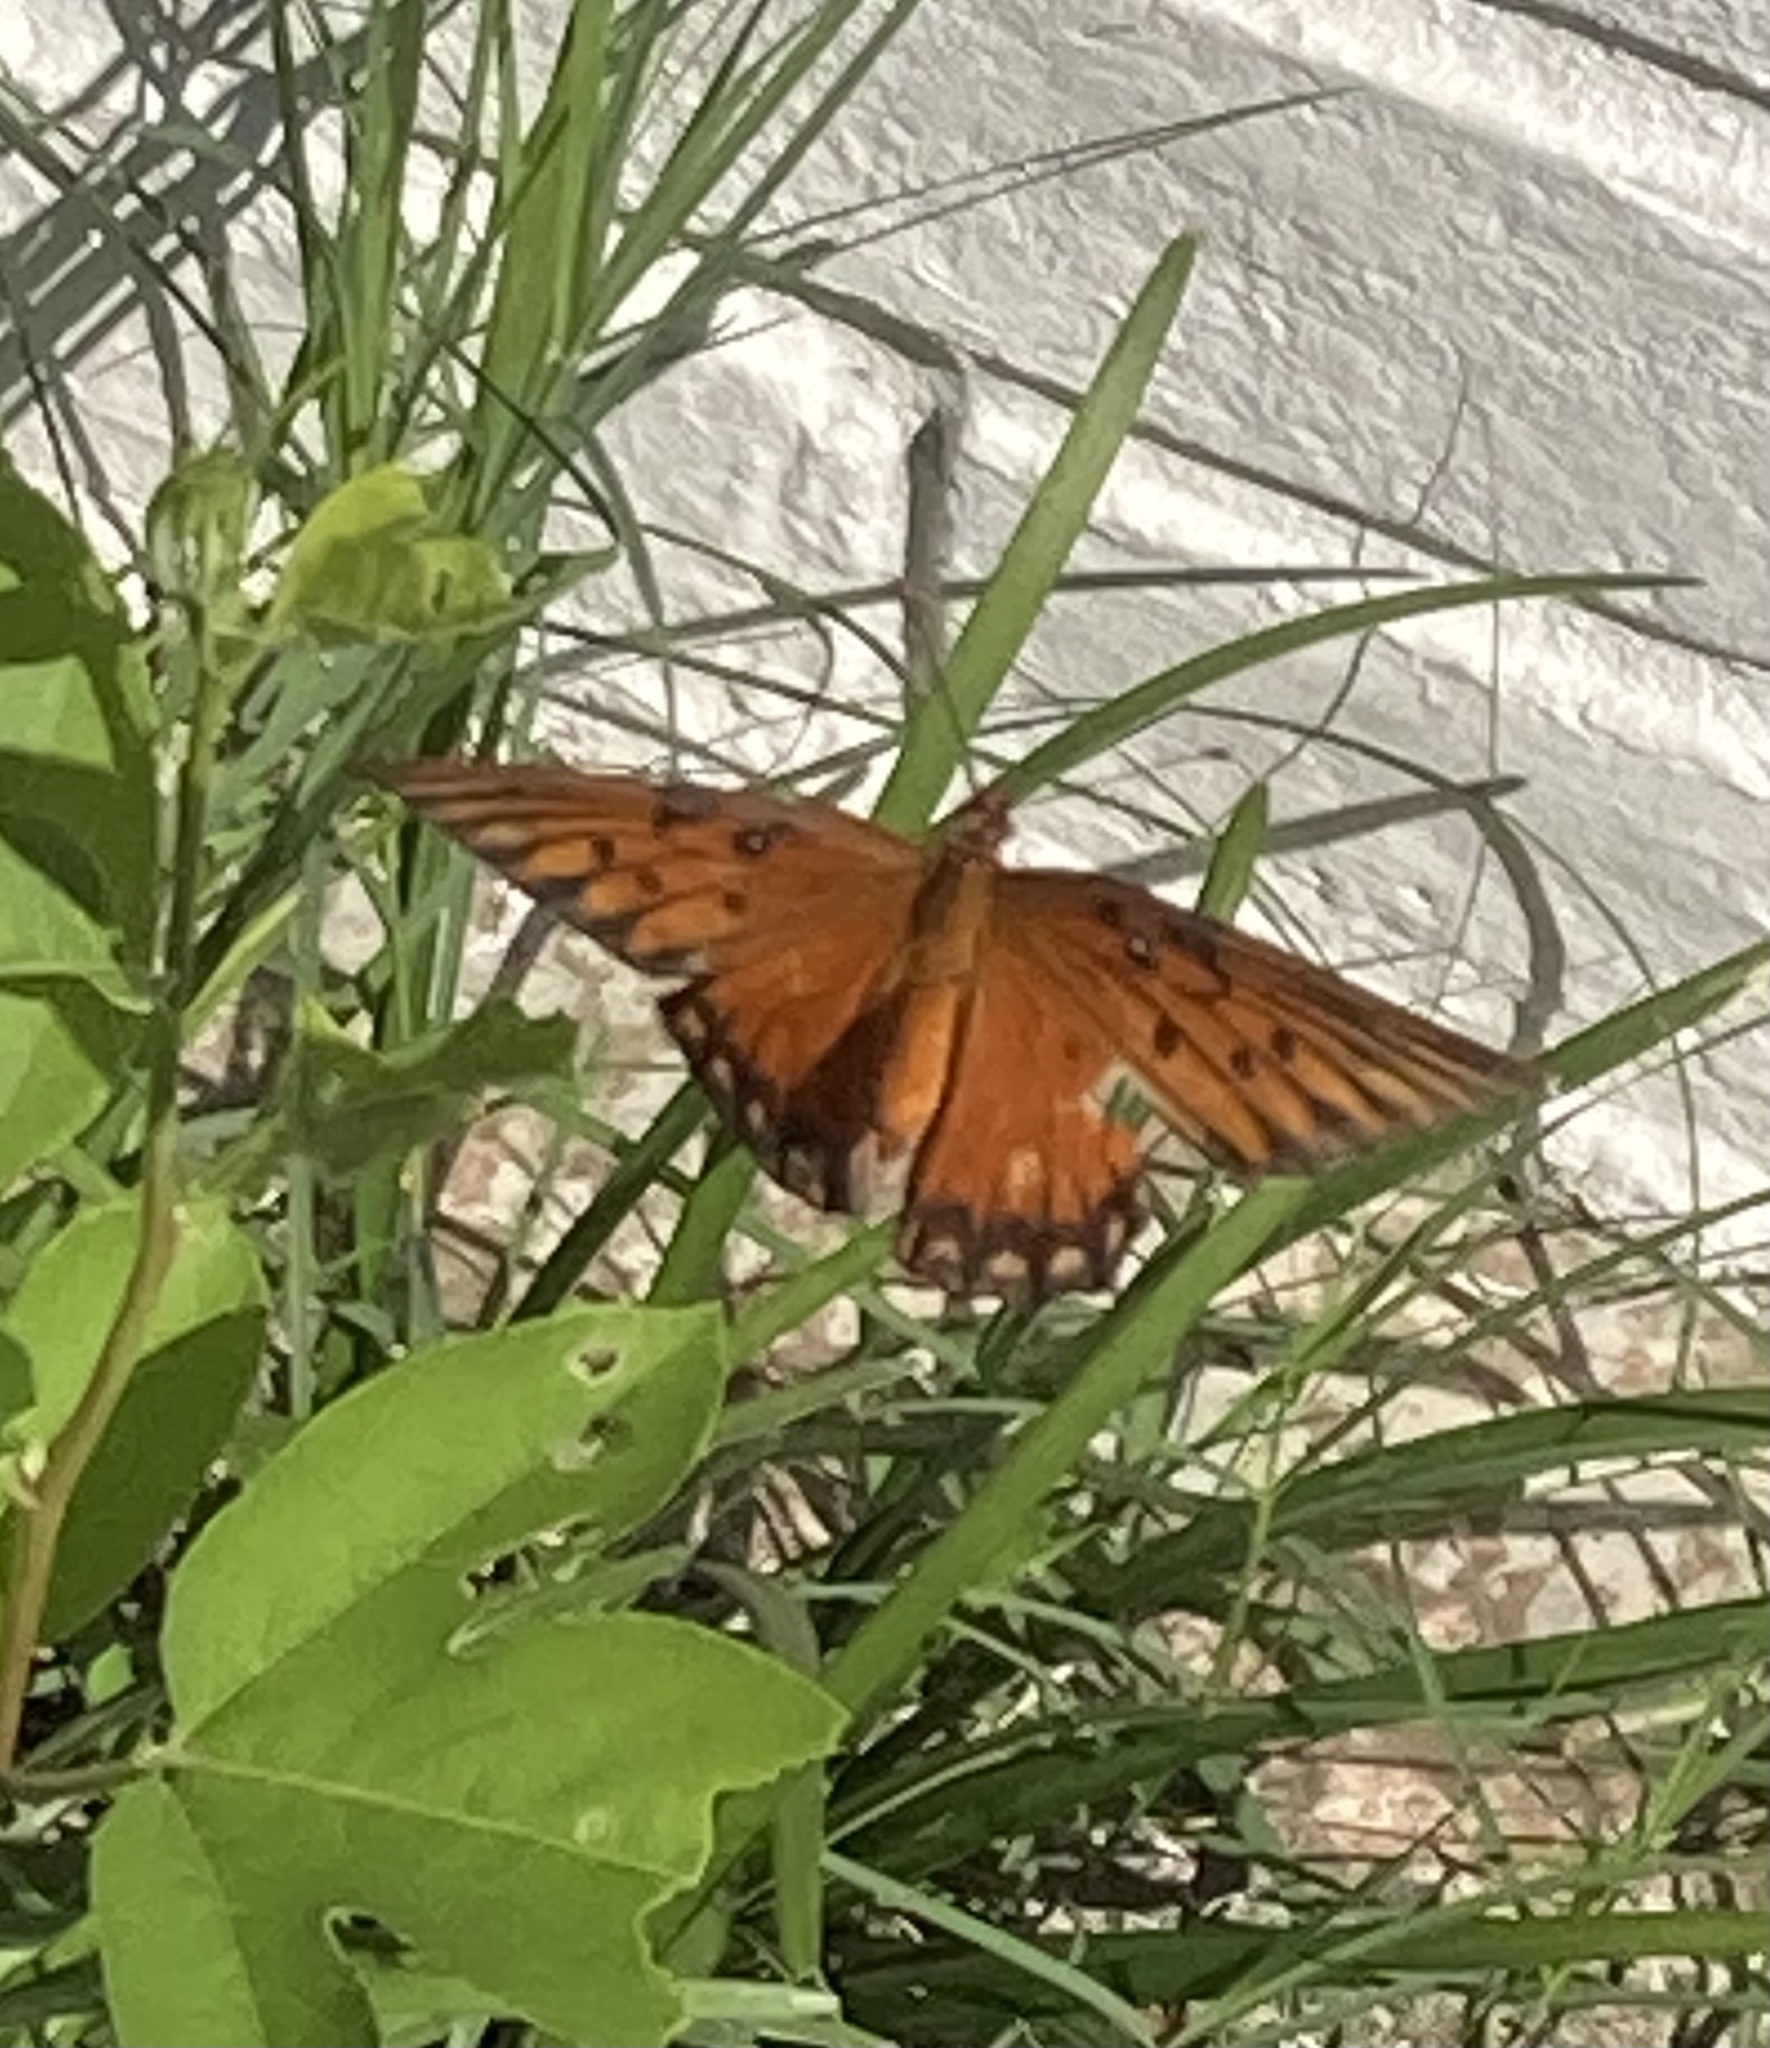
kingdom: Animalia
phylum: Arthropoda
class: Insecta
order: Lepidoptera
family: Nymphalidae
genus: Dione
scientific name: Dione vanillae
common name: Gulf fritillary
